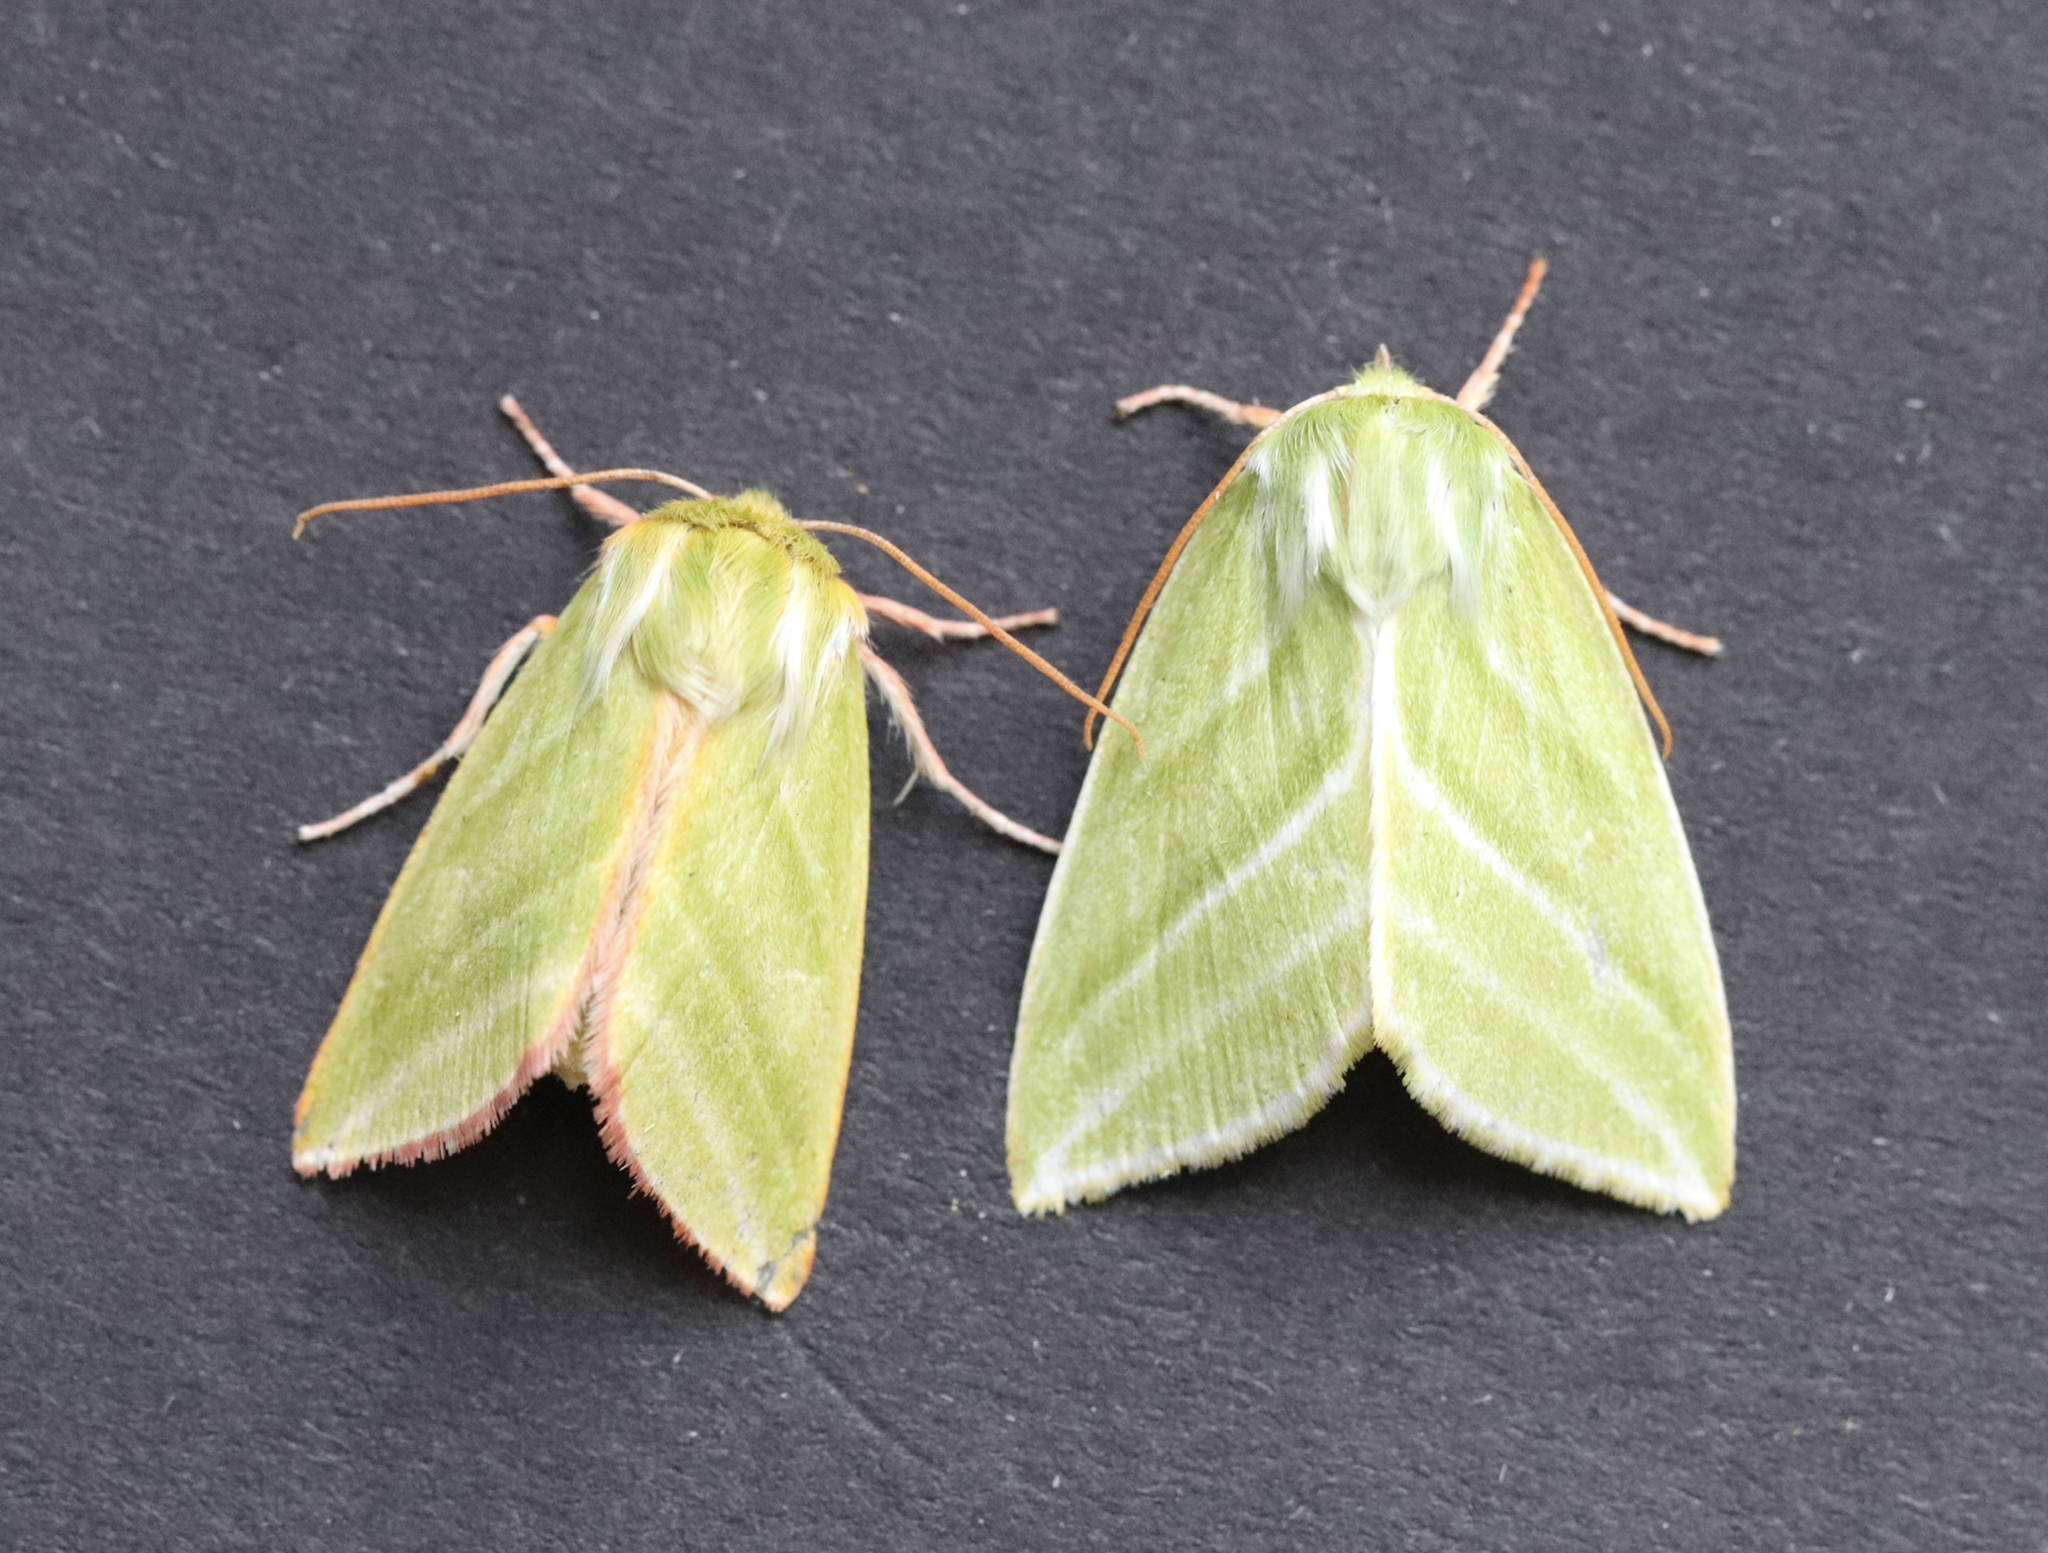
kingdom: Animalia
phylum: Arthropoda
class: Insecta
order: Lepidoptera
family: Nolidae
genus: Pseudoips
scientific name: Pseudoips prasinana
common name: Green silver-lines
